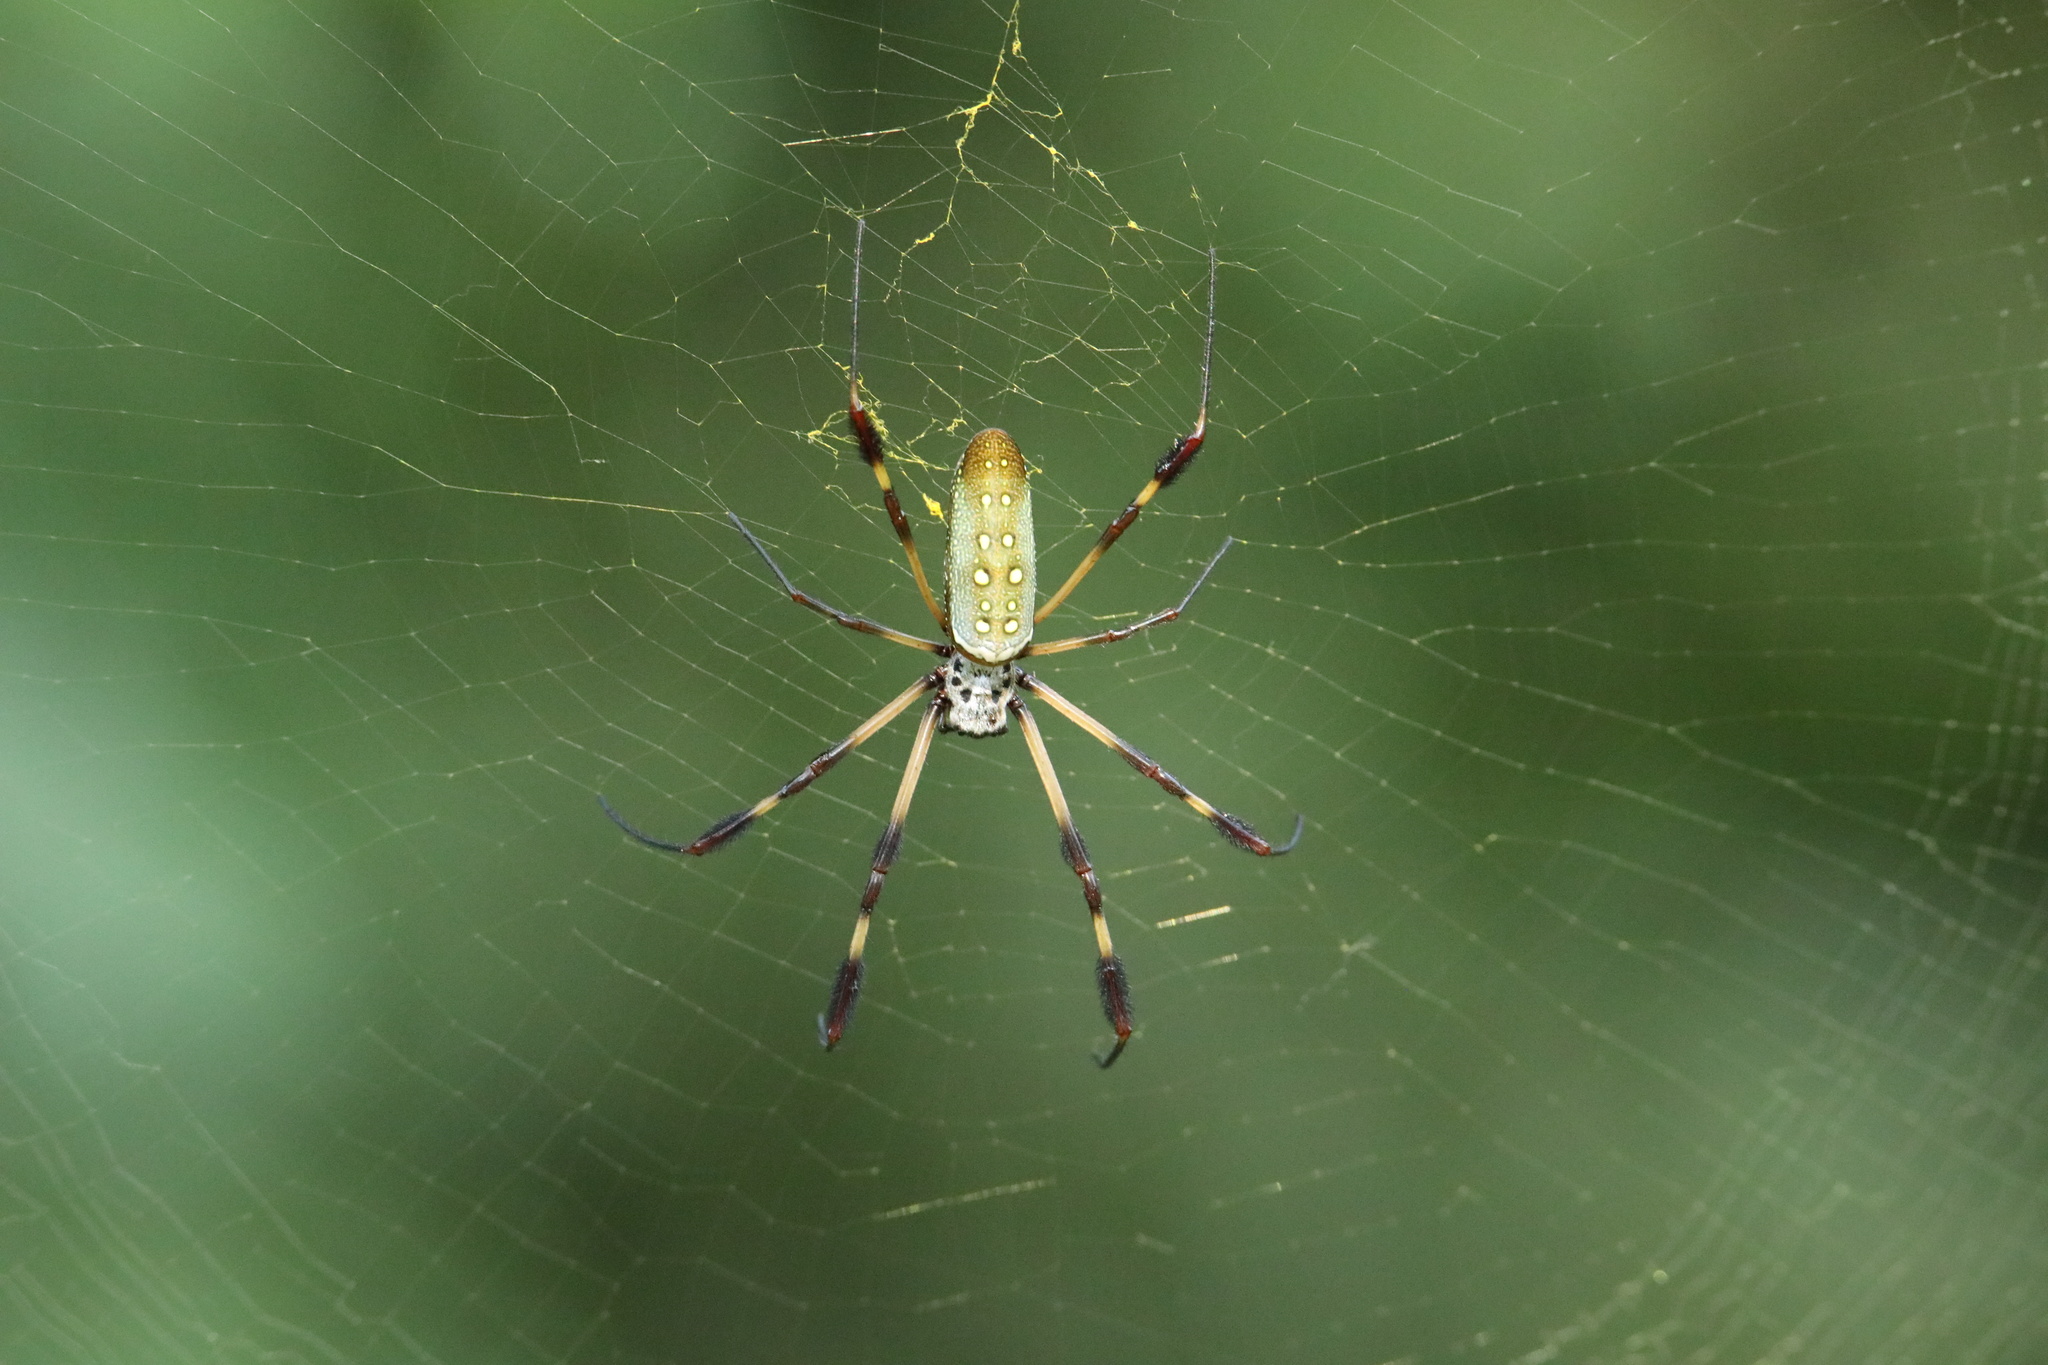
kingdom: Animalia
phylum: Arthropoda
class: Arachnida
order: Araneae
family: Araneidae
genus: Trichonephila
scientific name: Trichonephila clavipes
